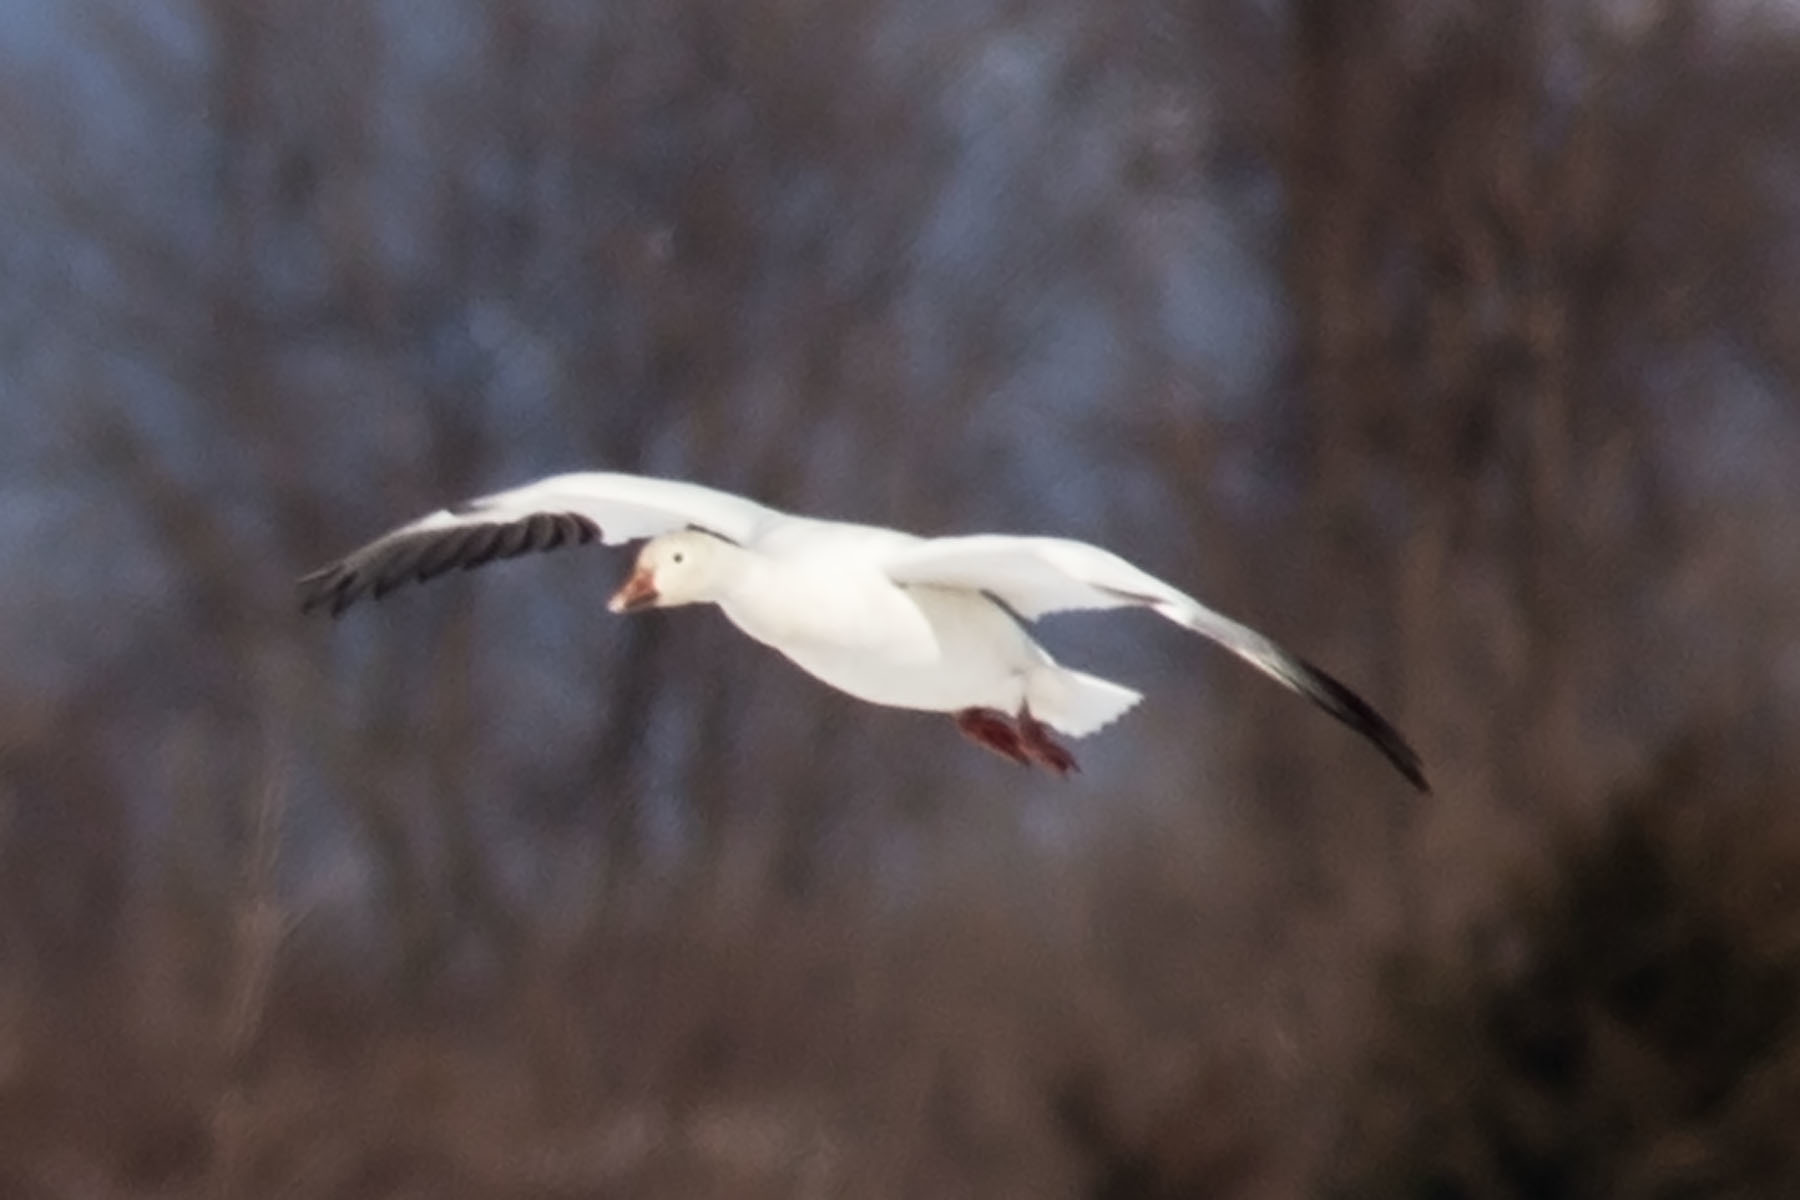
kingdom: Animalia
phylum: Chordata
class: Aves
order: Anseriformes
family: Anatidae
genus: Anser
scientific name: Anser caerulescens
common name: Snow goose
